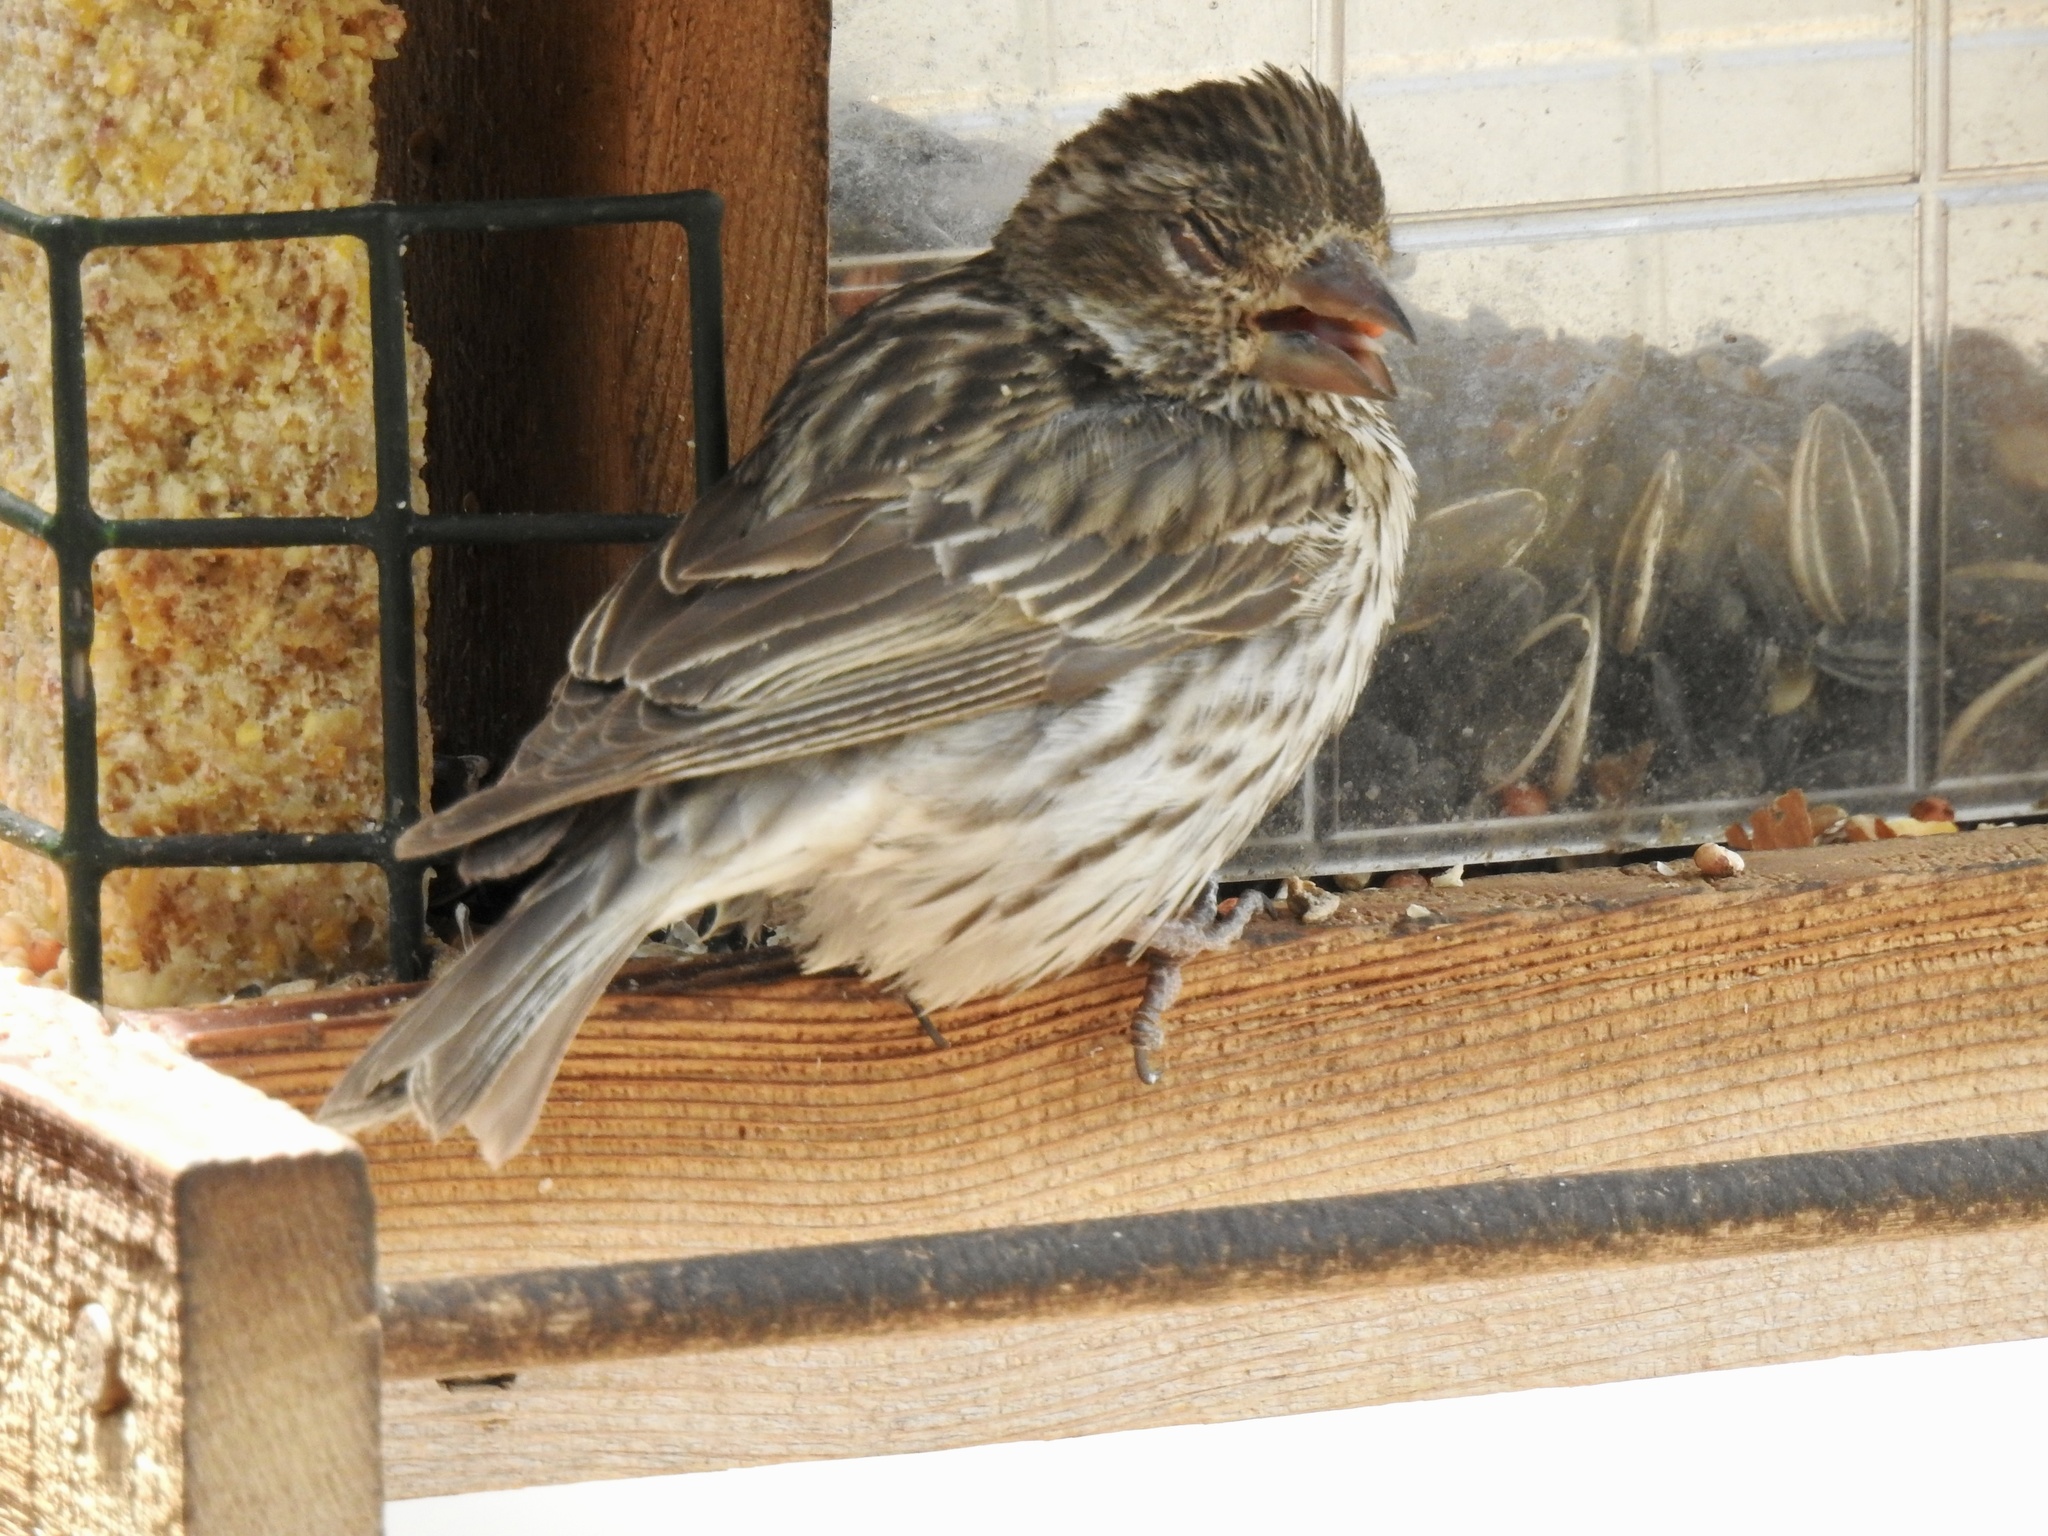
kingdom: Animalia
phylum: Chordata
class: Aves
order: Passeriformes
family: Fringillidae
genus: Haemorhous
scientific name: Haemorhous cassinii
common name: Cassin's finch
